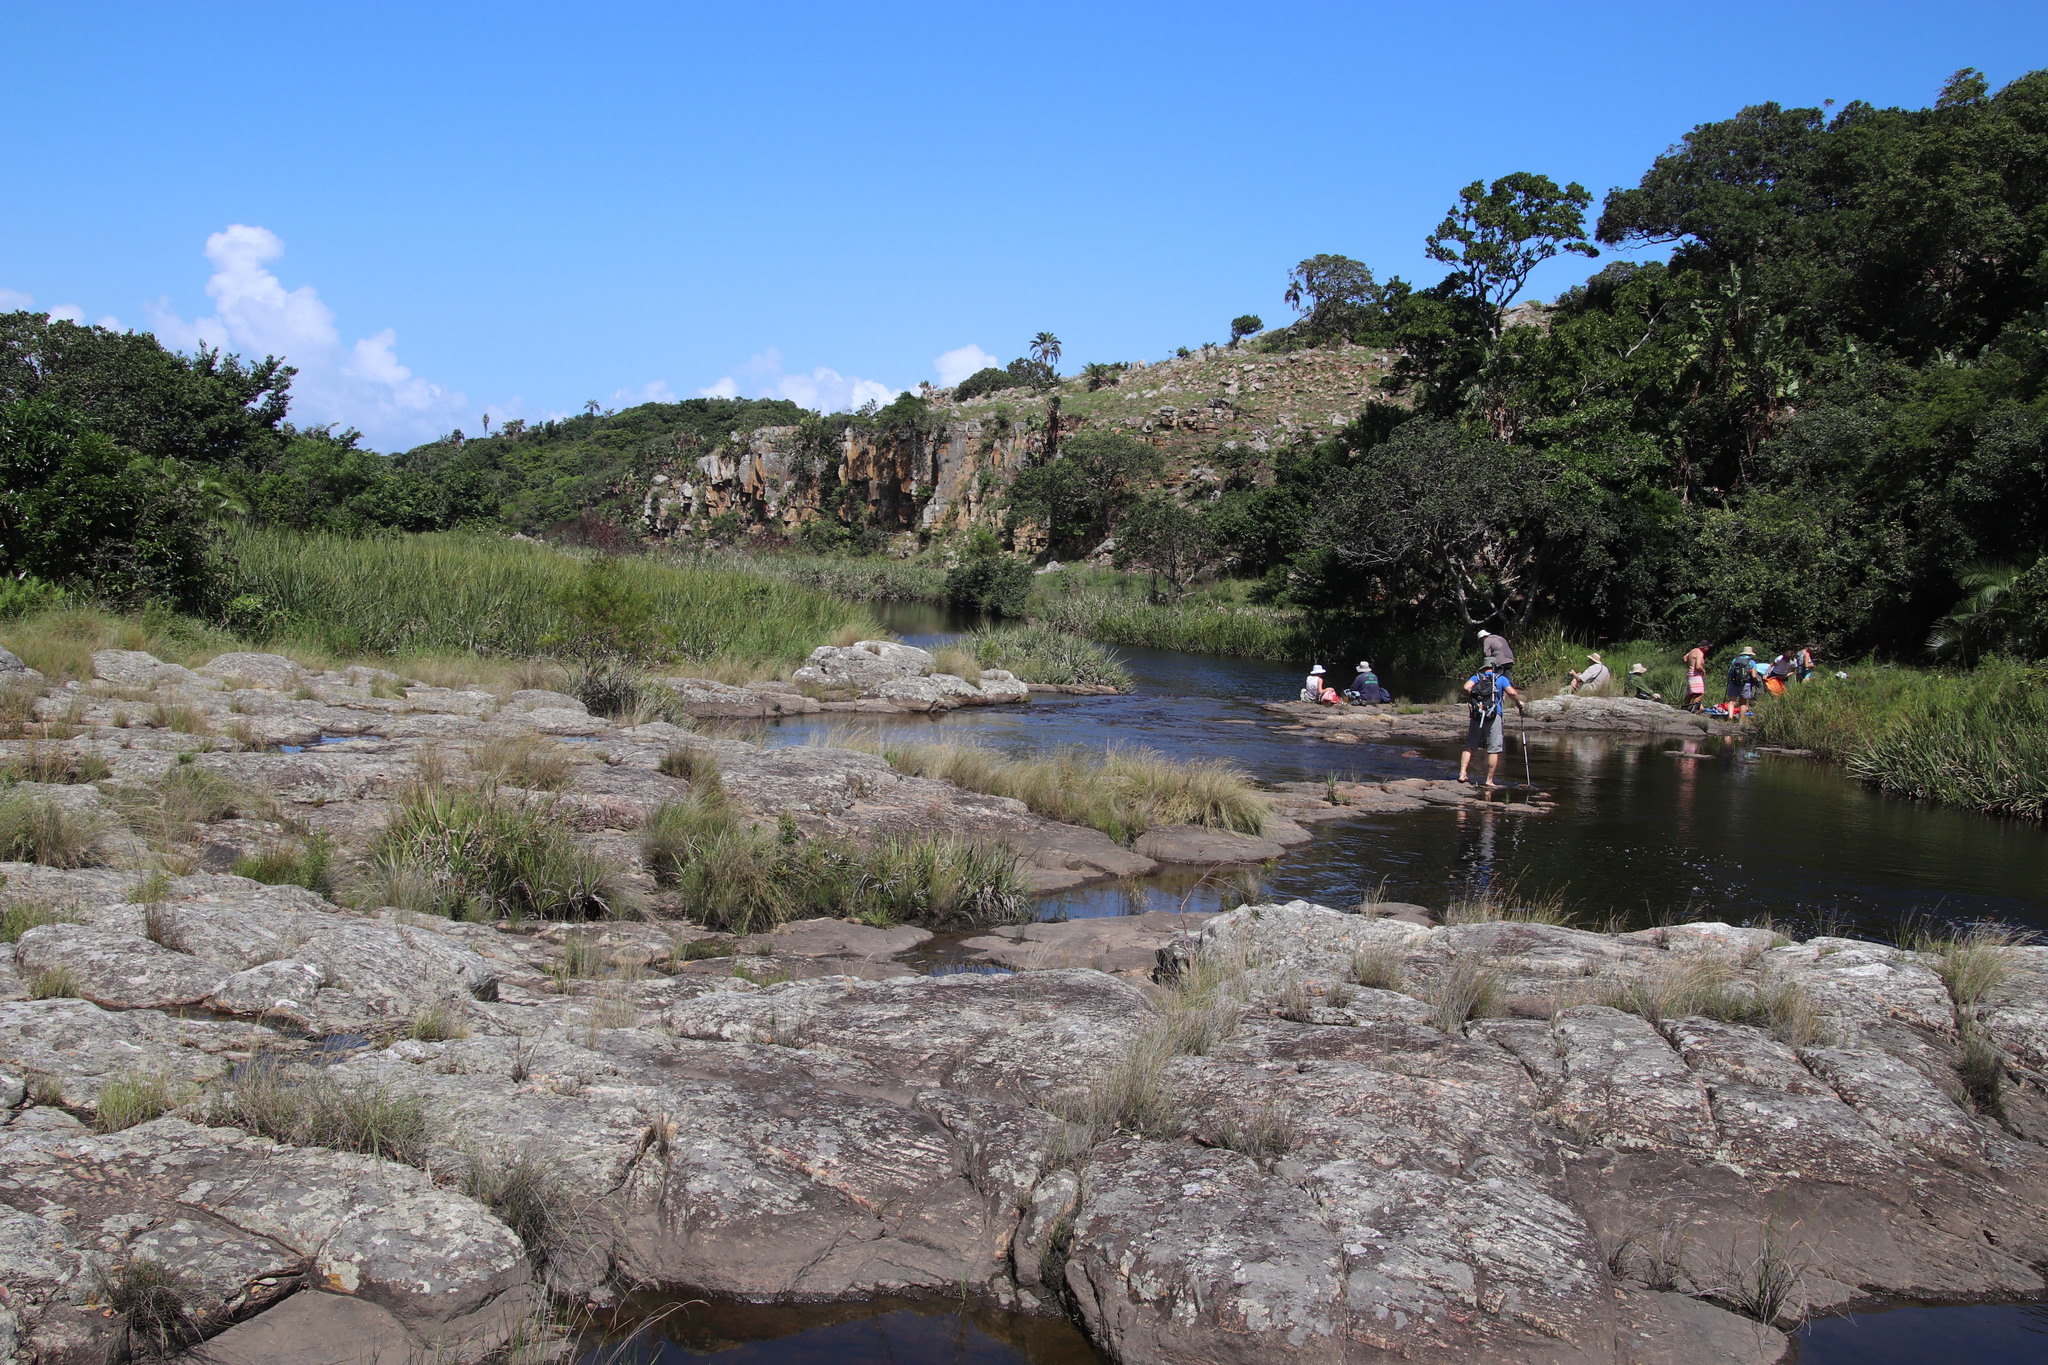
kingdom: Plantae
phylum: Tracheophyta
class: Liliopsida
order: Poales
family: Thurniaceae
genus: Prionium
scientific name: Prionium serratum
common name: Palmiet
